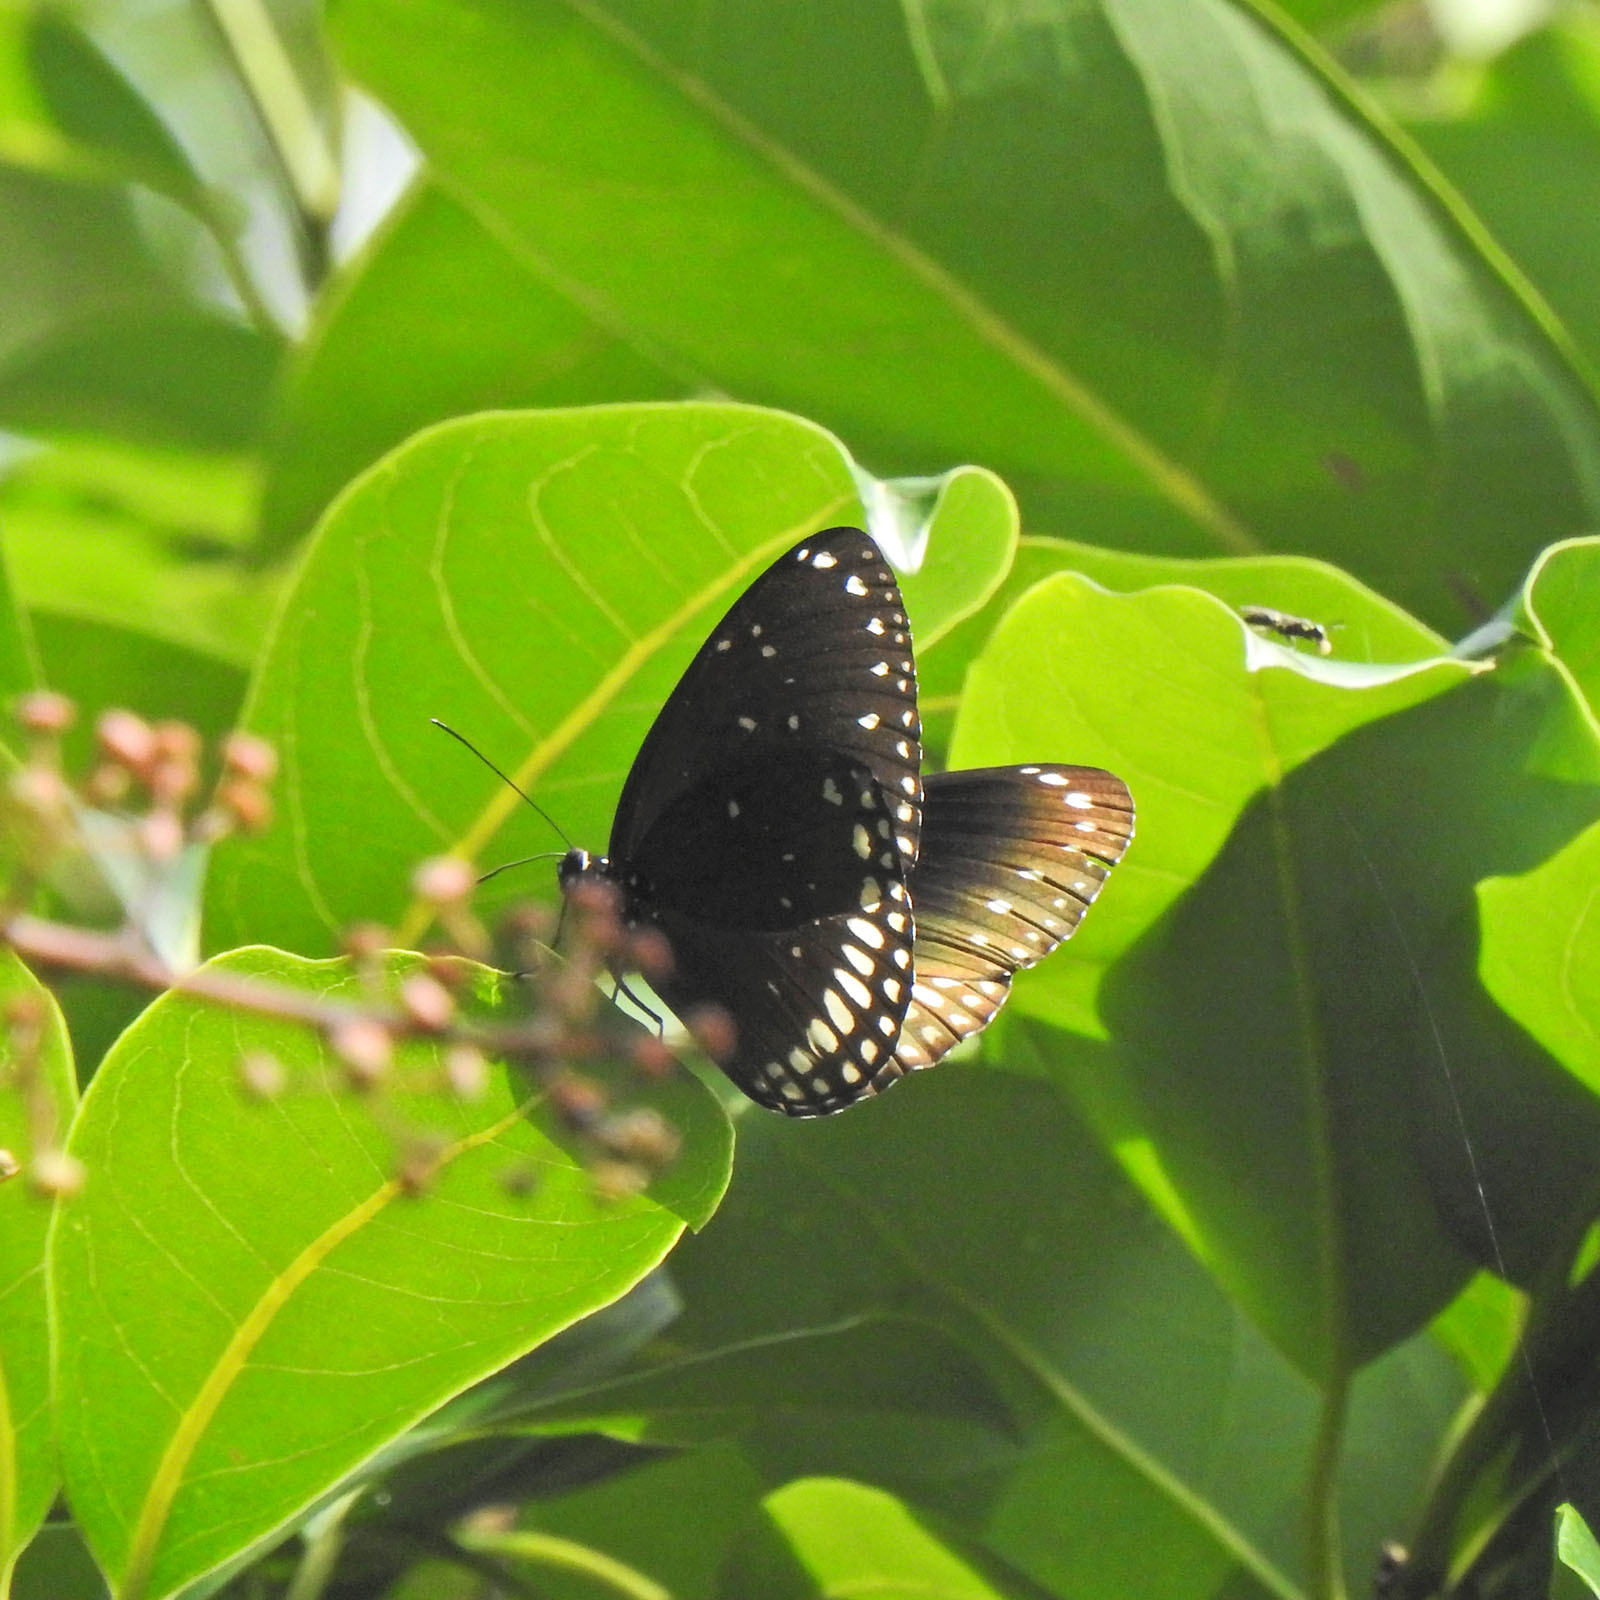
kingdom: Animalia
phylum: Arthropoda
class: Insecta
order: Lepidoptera
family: Nymphalidae
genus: Euploea
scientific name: Euploea sylvester
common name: Double-branded crow butterfly
